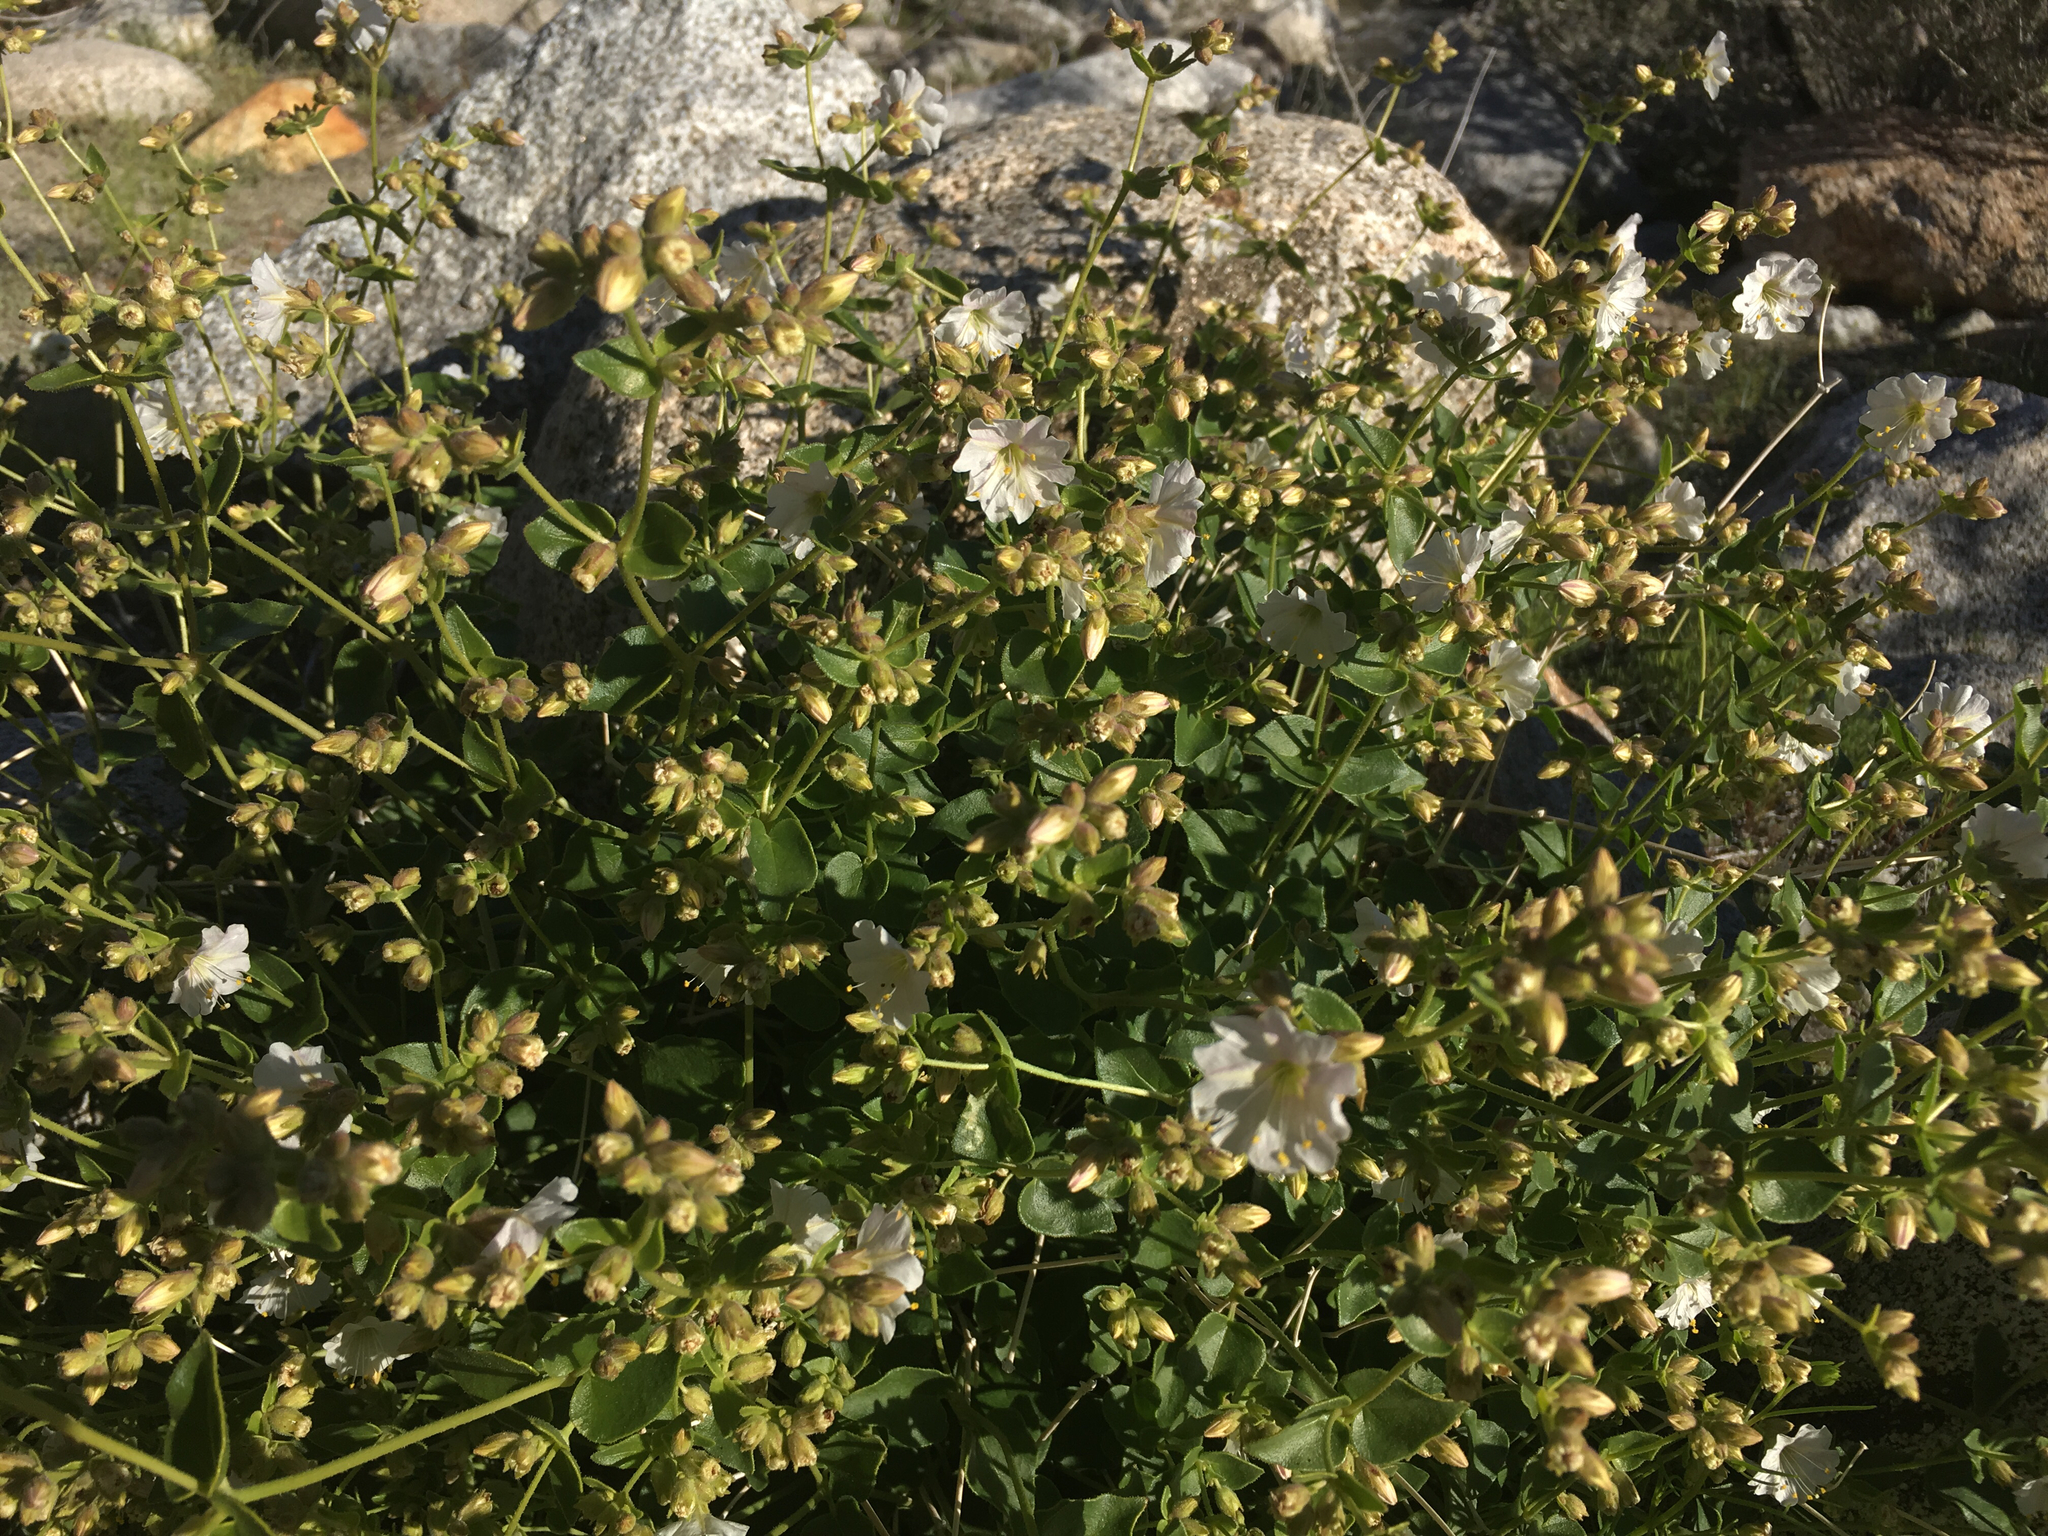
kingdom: Plantae
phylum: Tracheophyta
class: Magnoliopsida
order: Caryophyllales
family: Nyctaginaceae
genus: Mirabilis
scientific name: Mirabilis laevis
